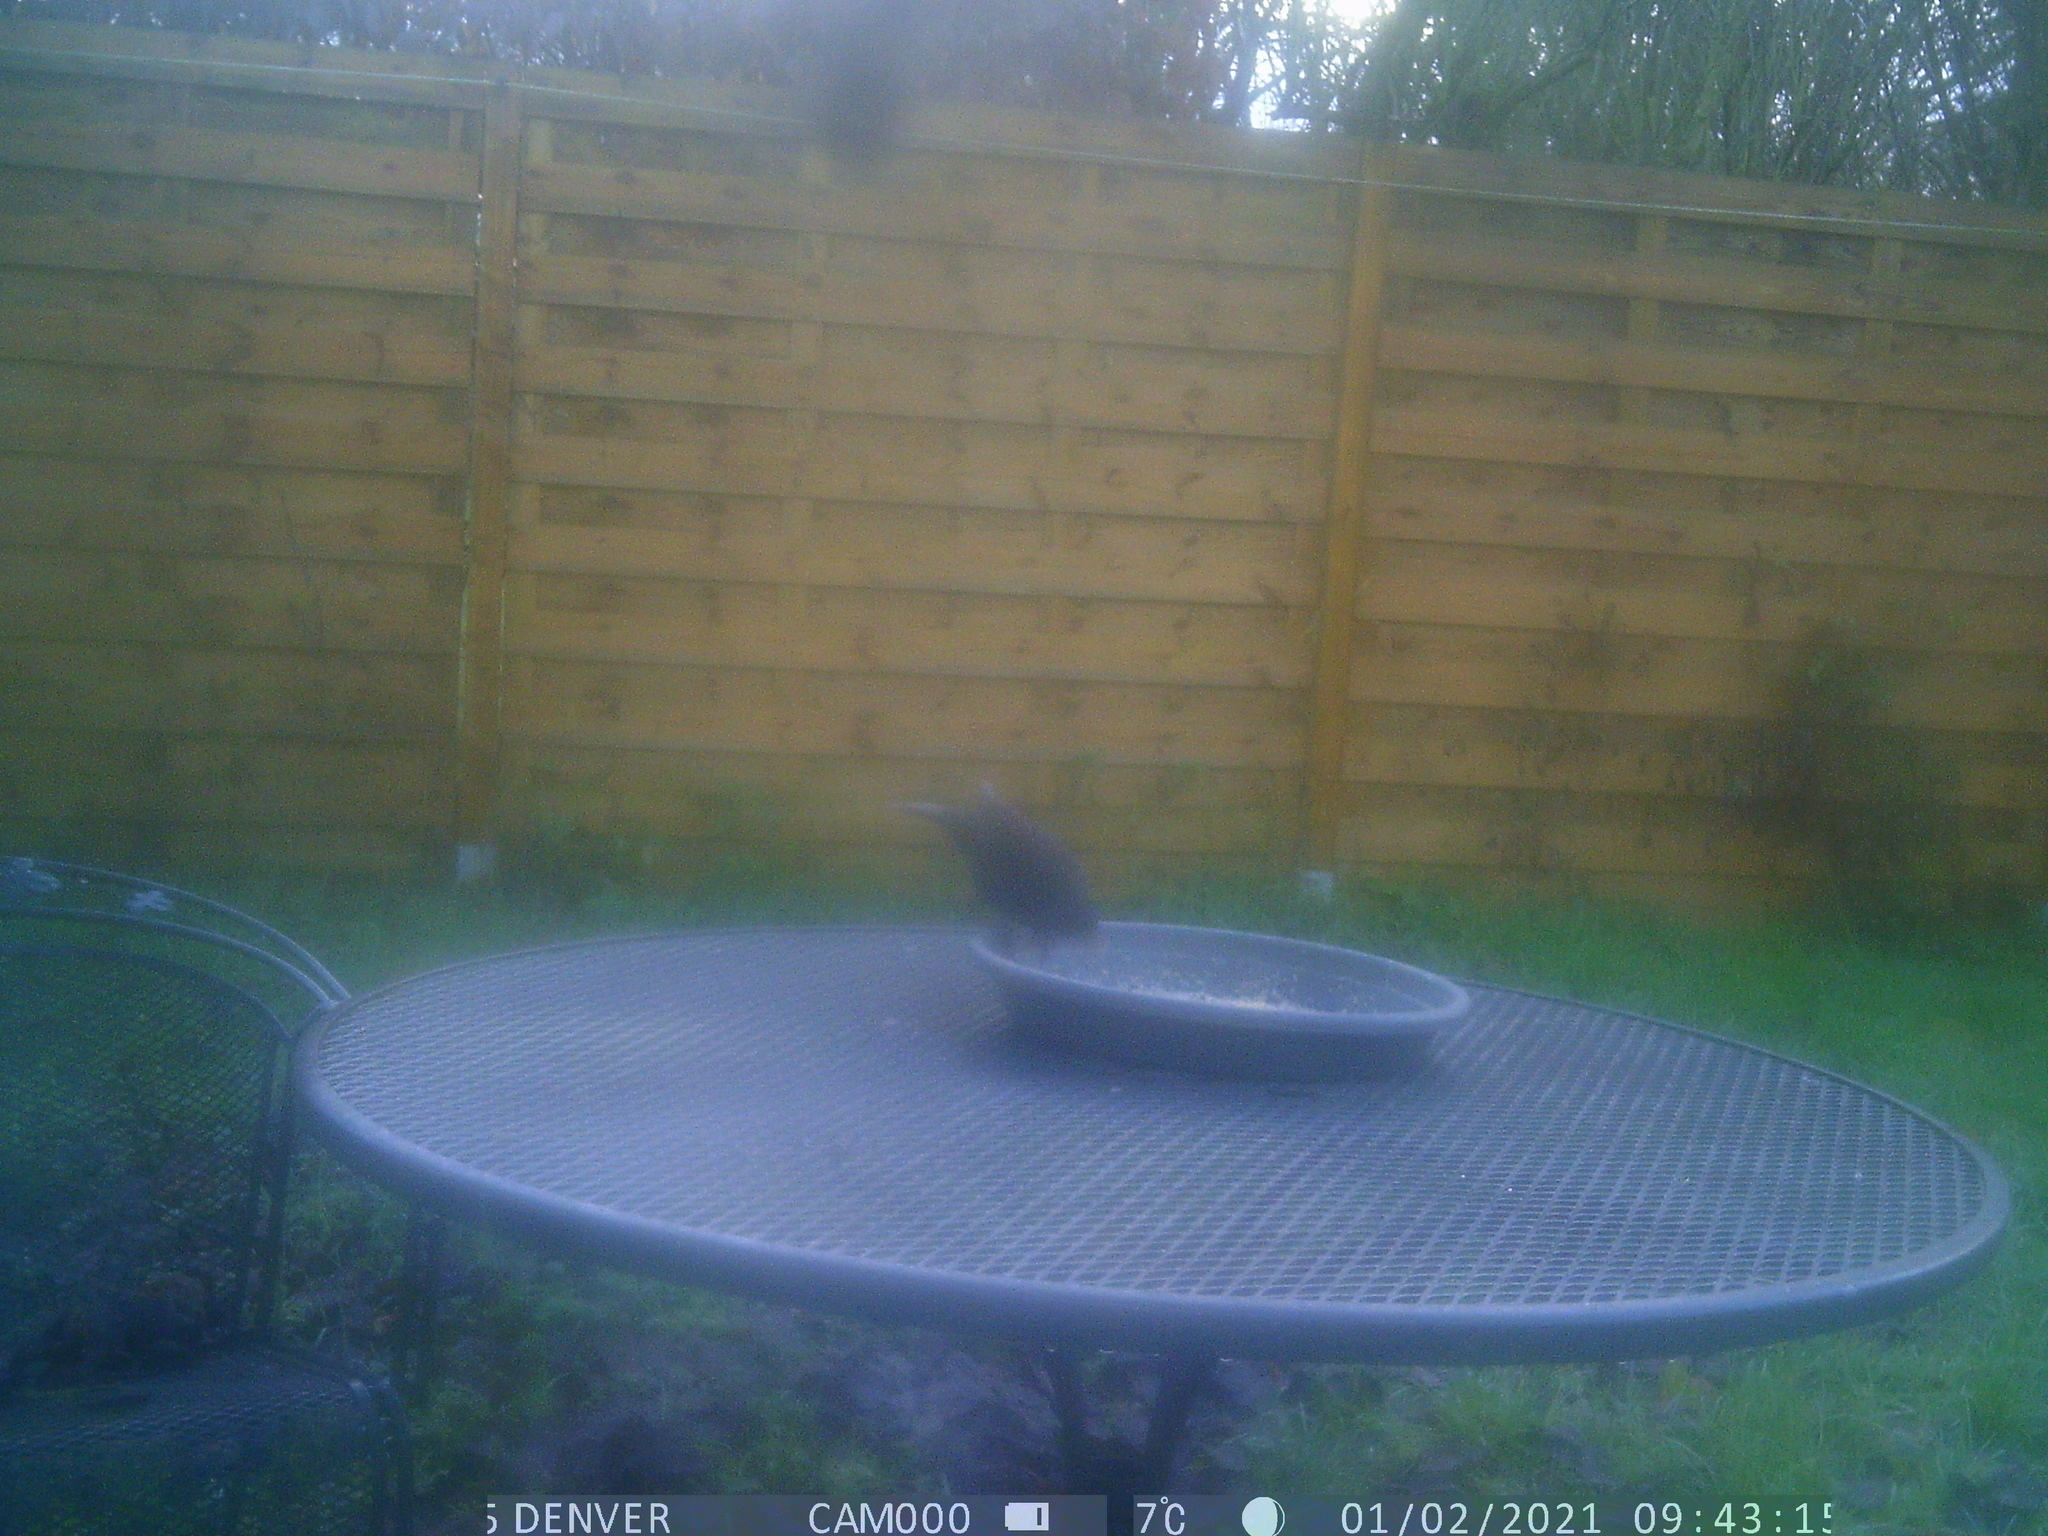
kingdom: Animalia
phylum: Chordata
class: Aves
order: Passeriformes
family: Turdidae
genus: Turdus
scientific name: Turdus merula
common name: Common blackbird
